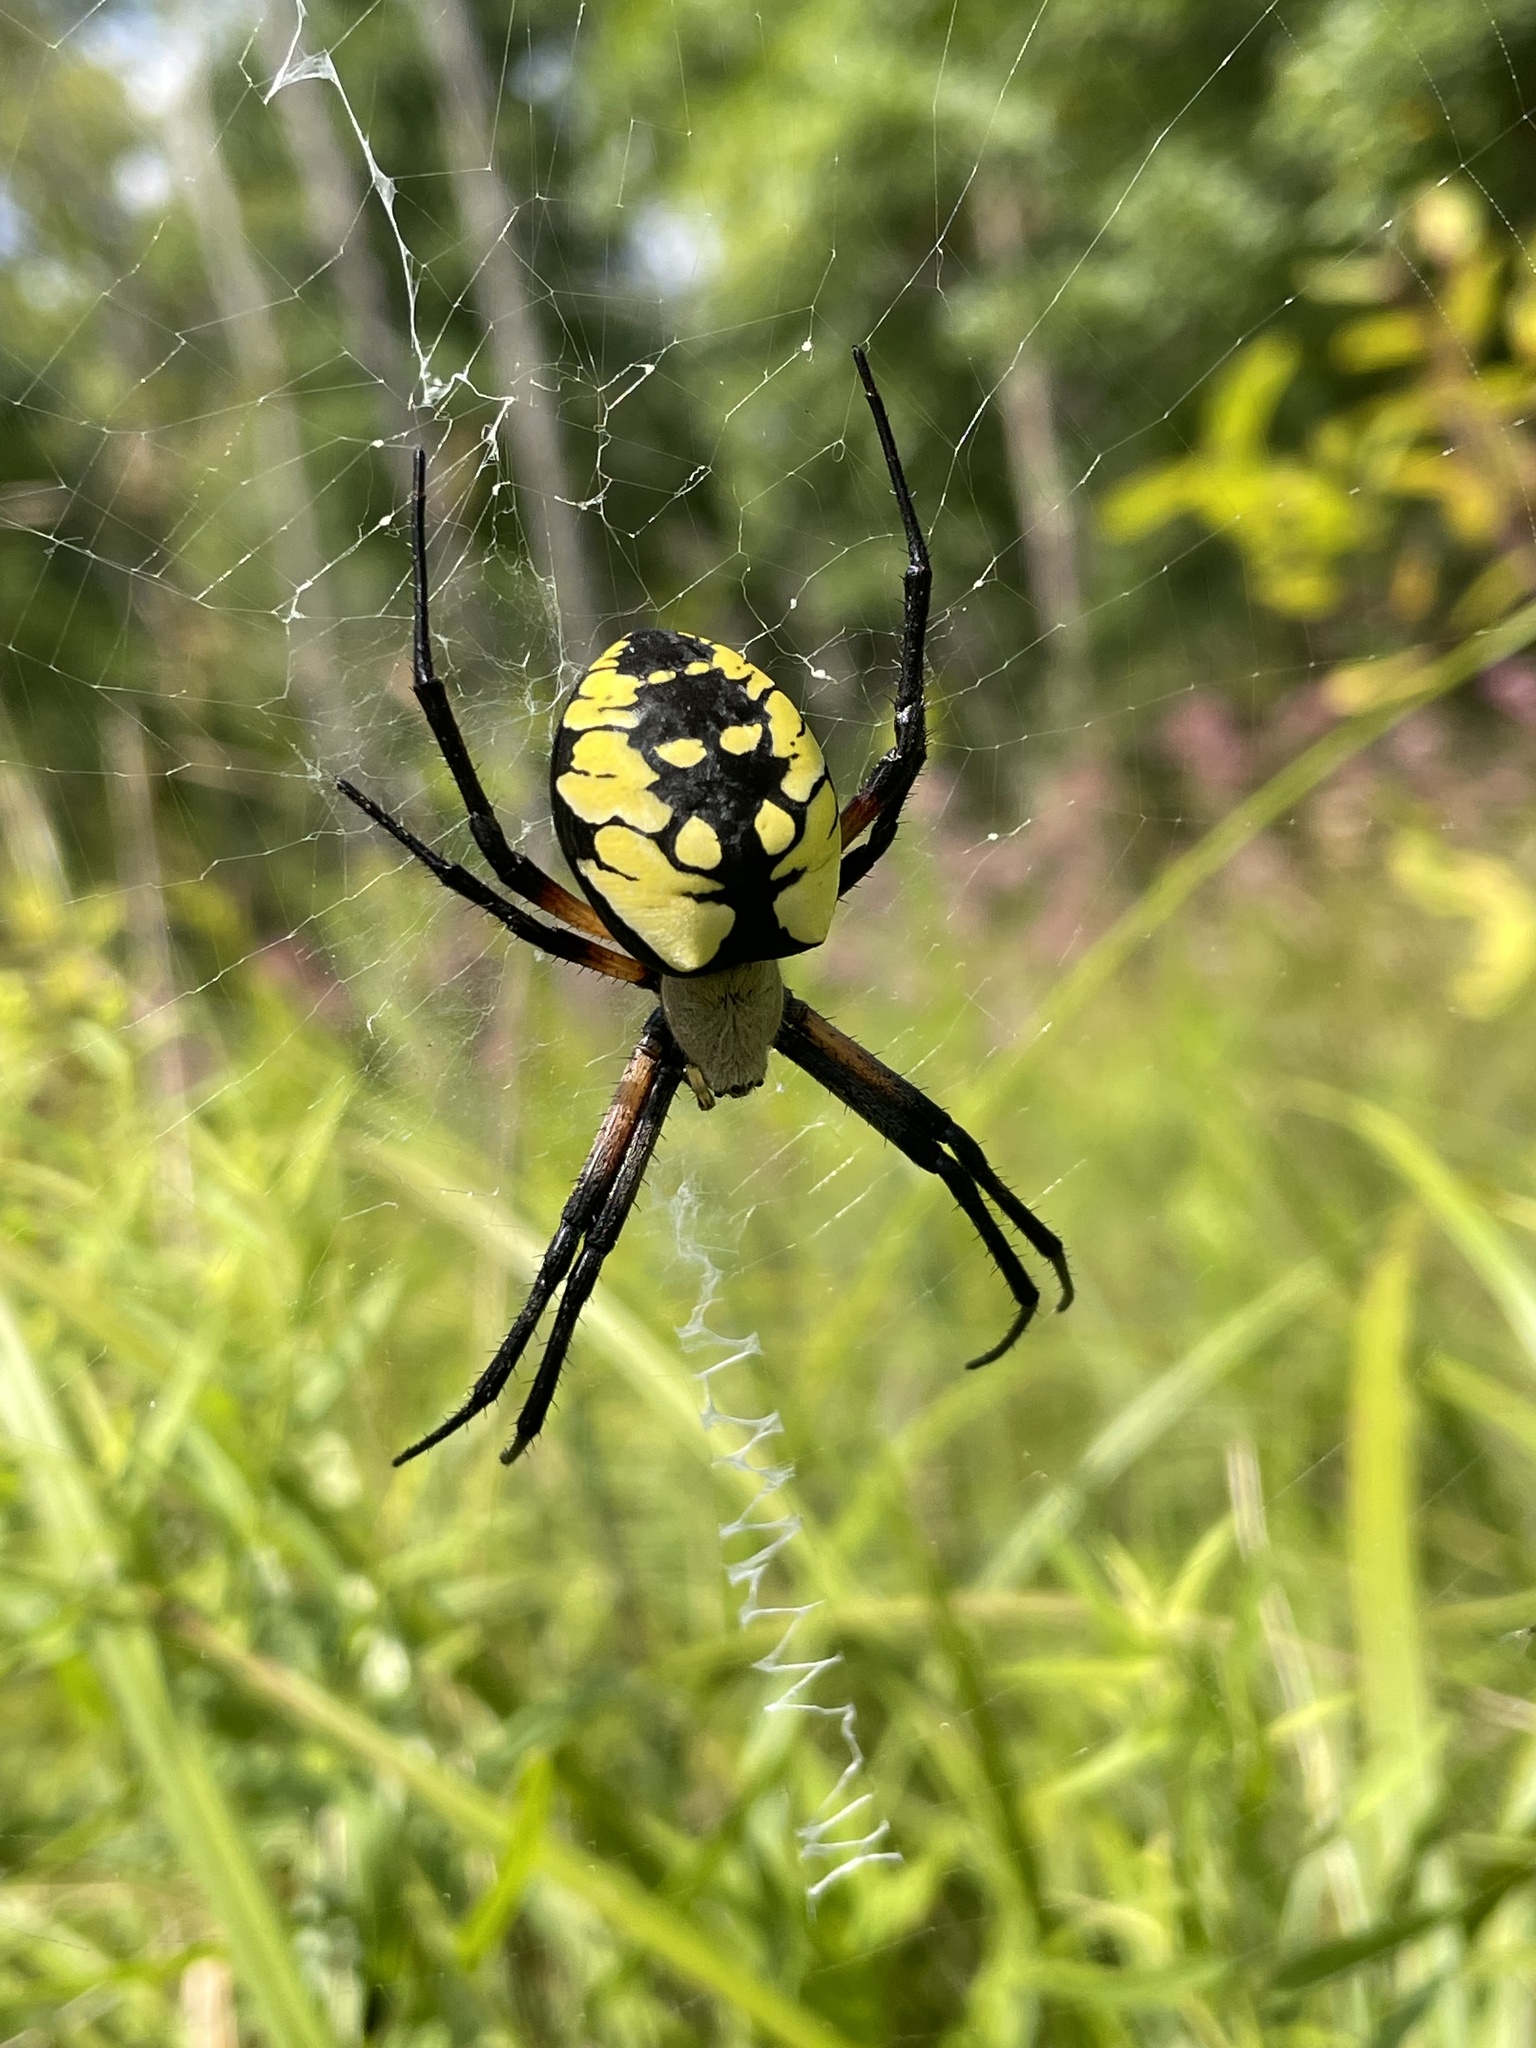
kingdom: Animalia
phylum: Arthropoda
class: Arachnida
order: Araneae
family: Araneidae
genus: Argiope
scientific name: Argiope aurantia
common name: Orb weavers
